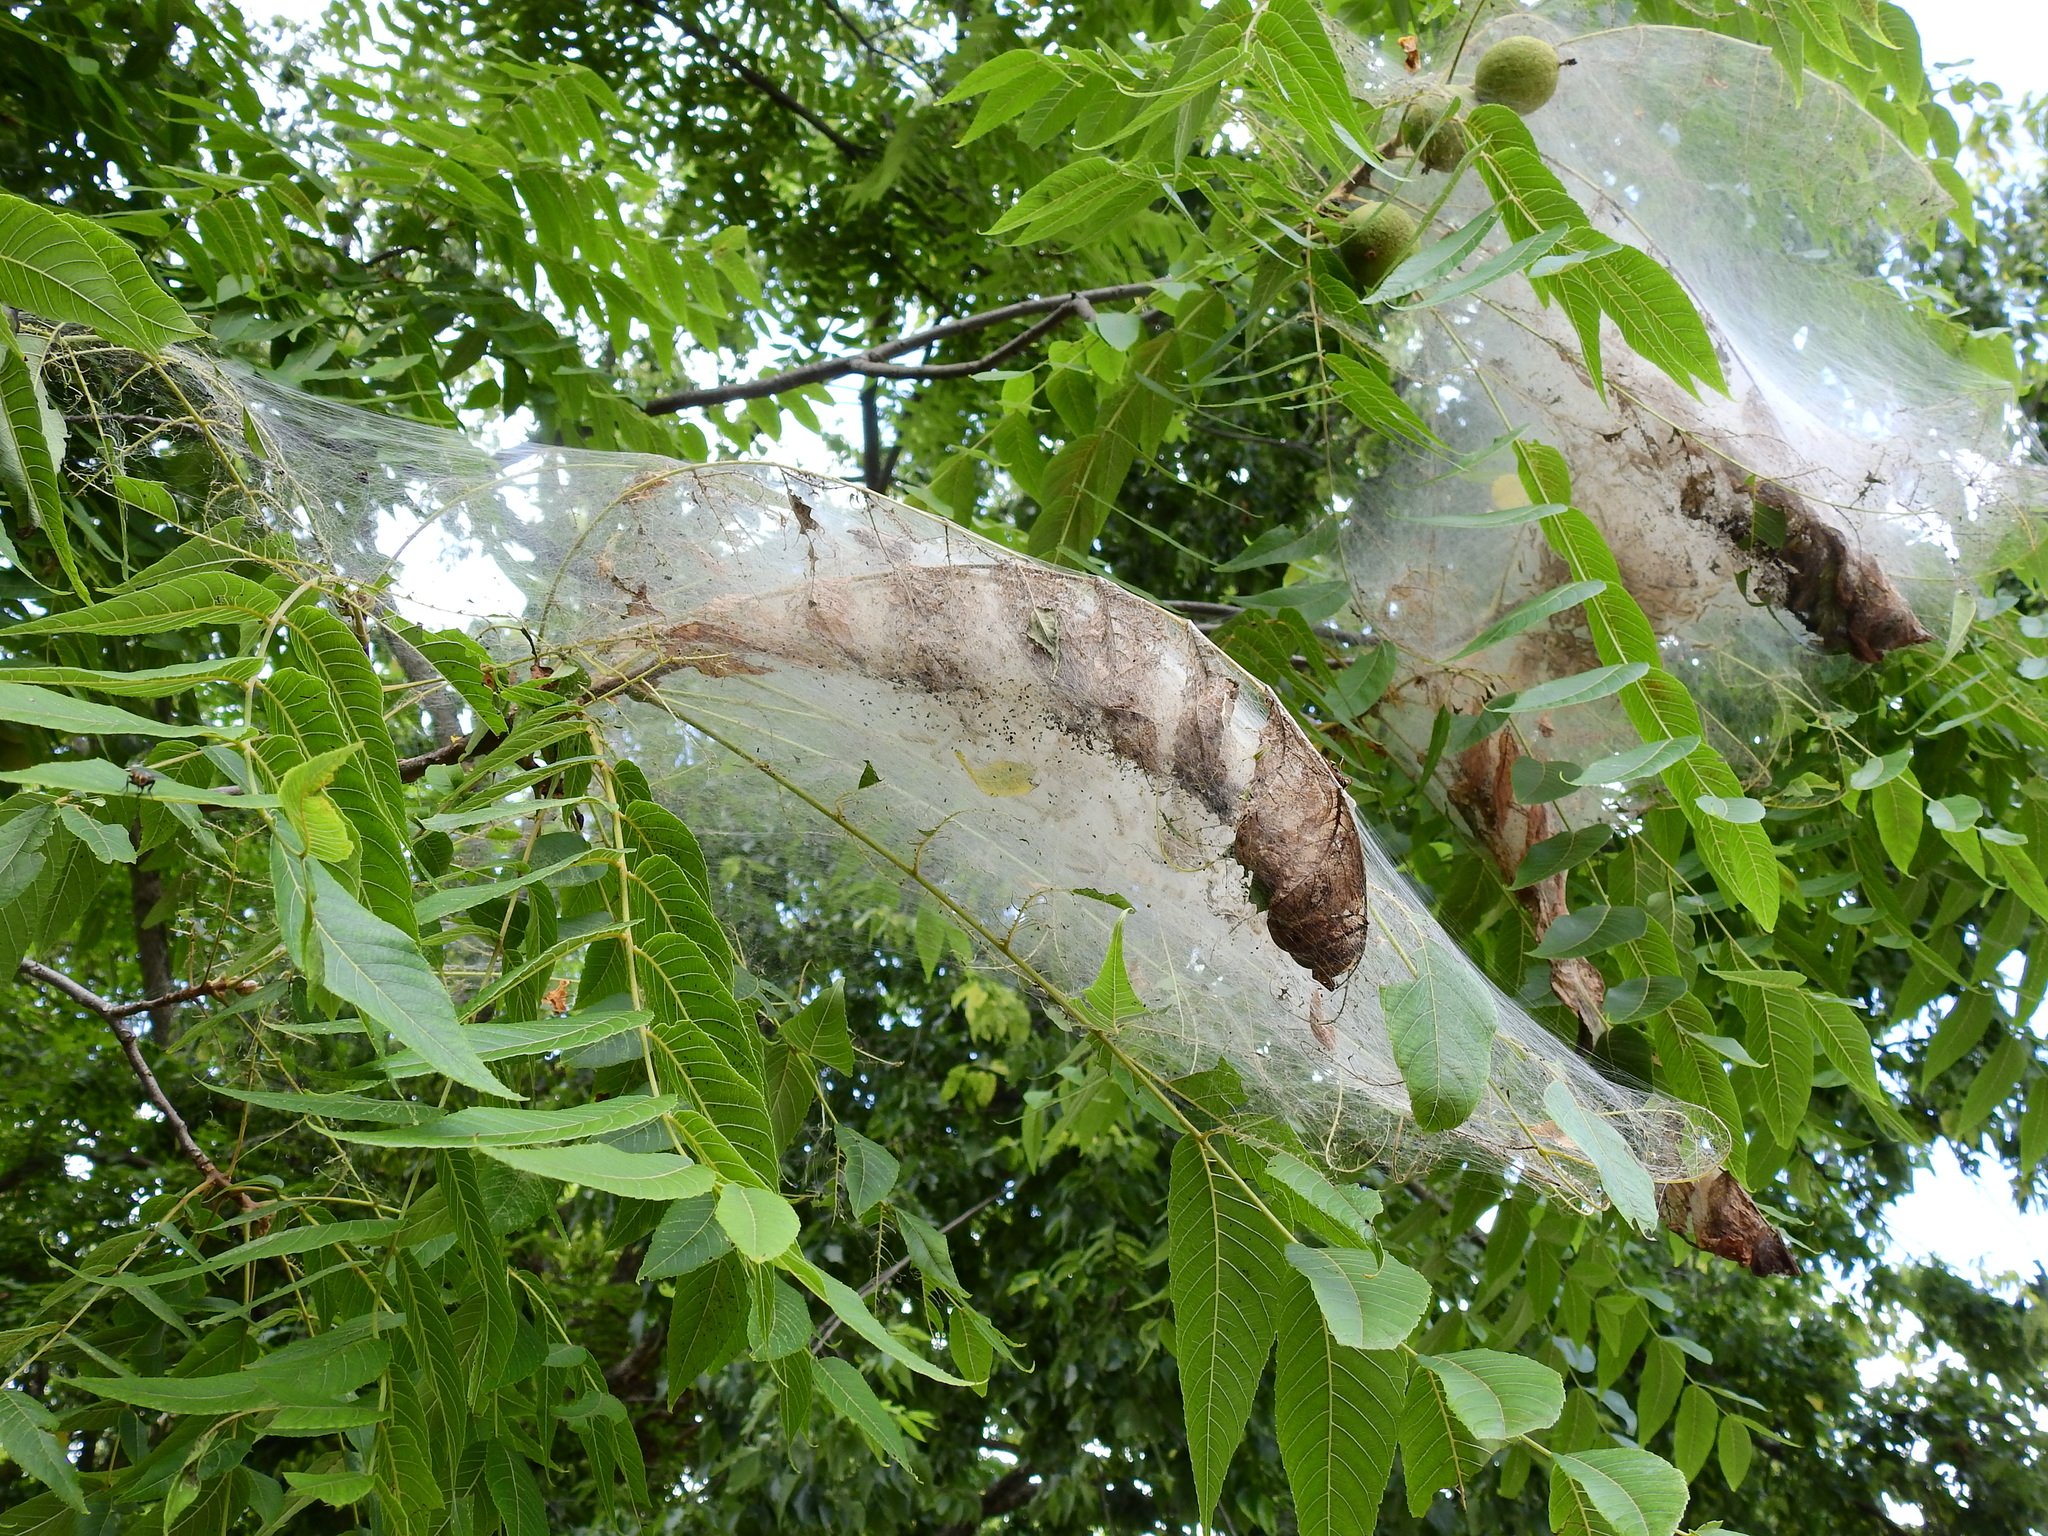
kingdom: Animalia
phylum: Arthropoda
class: Insecta
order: Lepidoptera
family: Erebidae
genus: Hyphantria
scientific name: Hyphantria cunea
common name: American white moth
